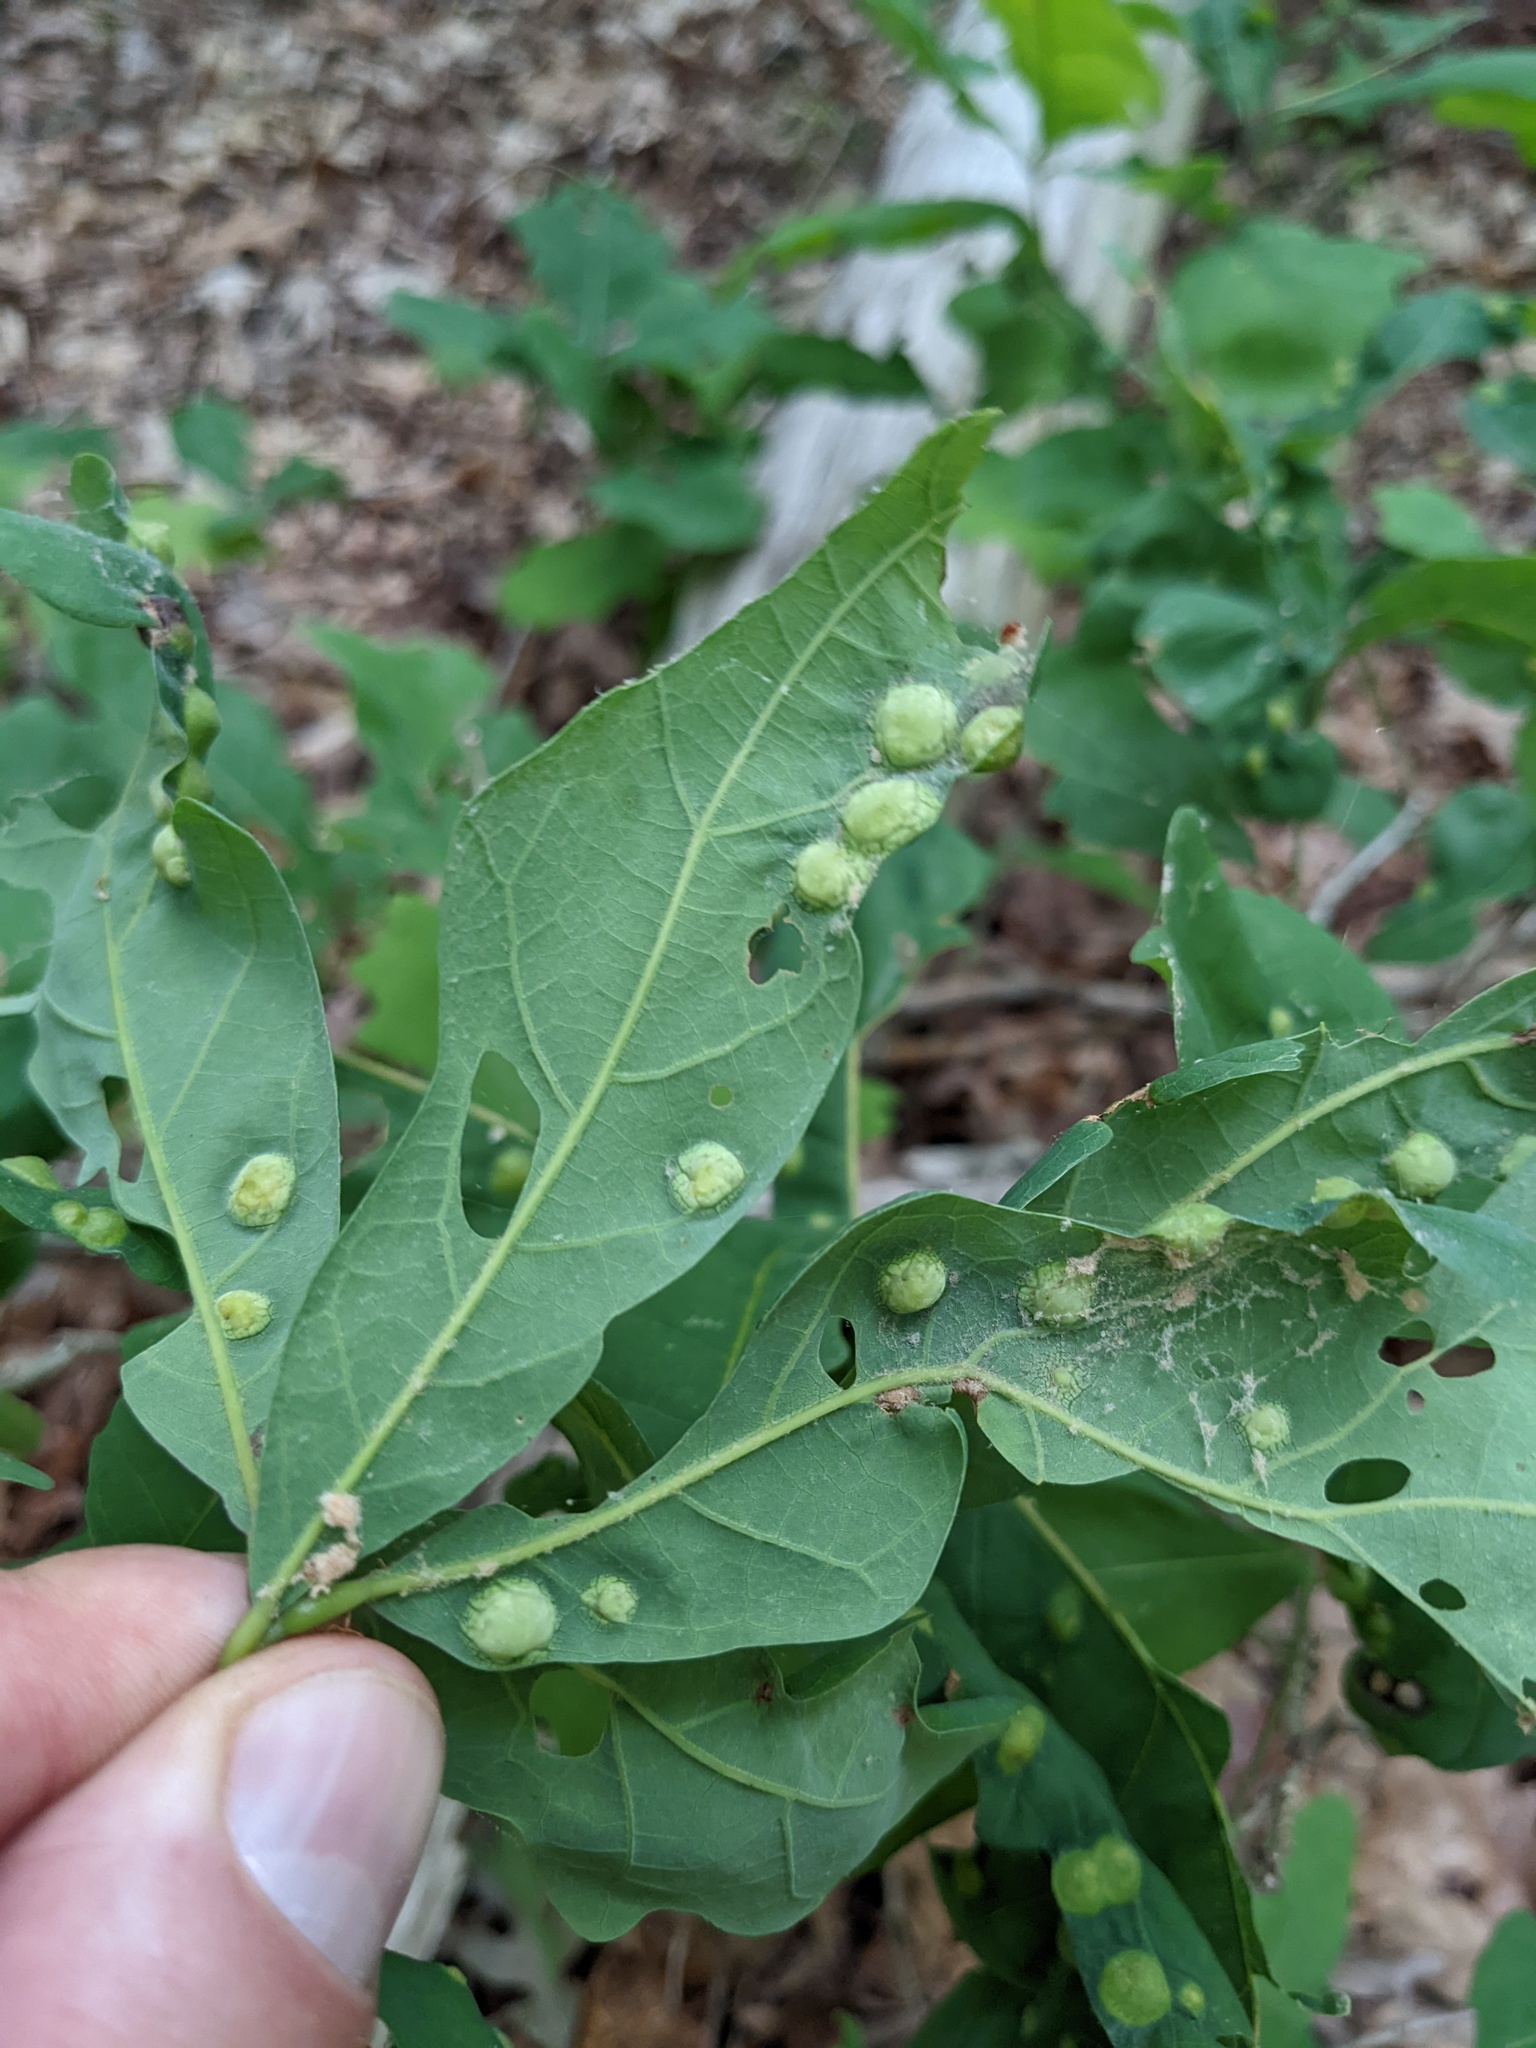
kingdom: Animalia
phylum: Arthropoda
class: Insecta
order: Hymenoptera
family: Cynipidae
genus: Callirhytis
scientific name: Callirhytis
